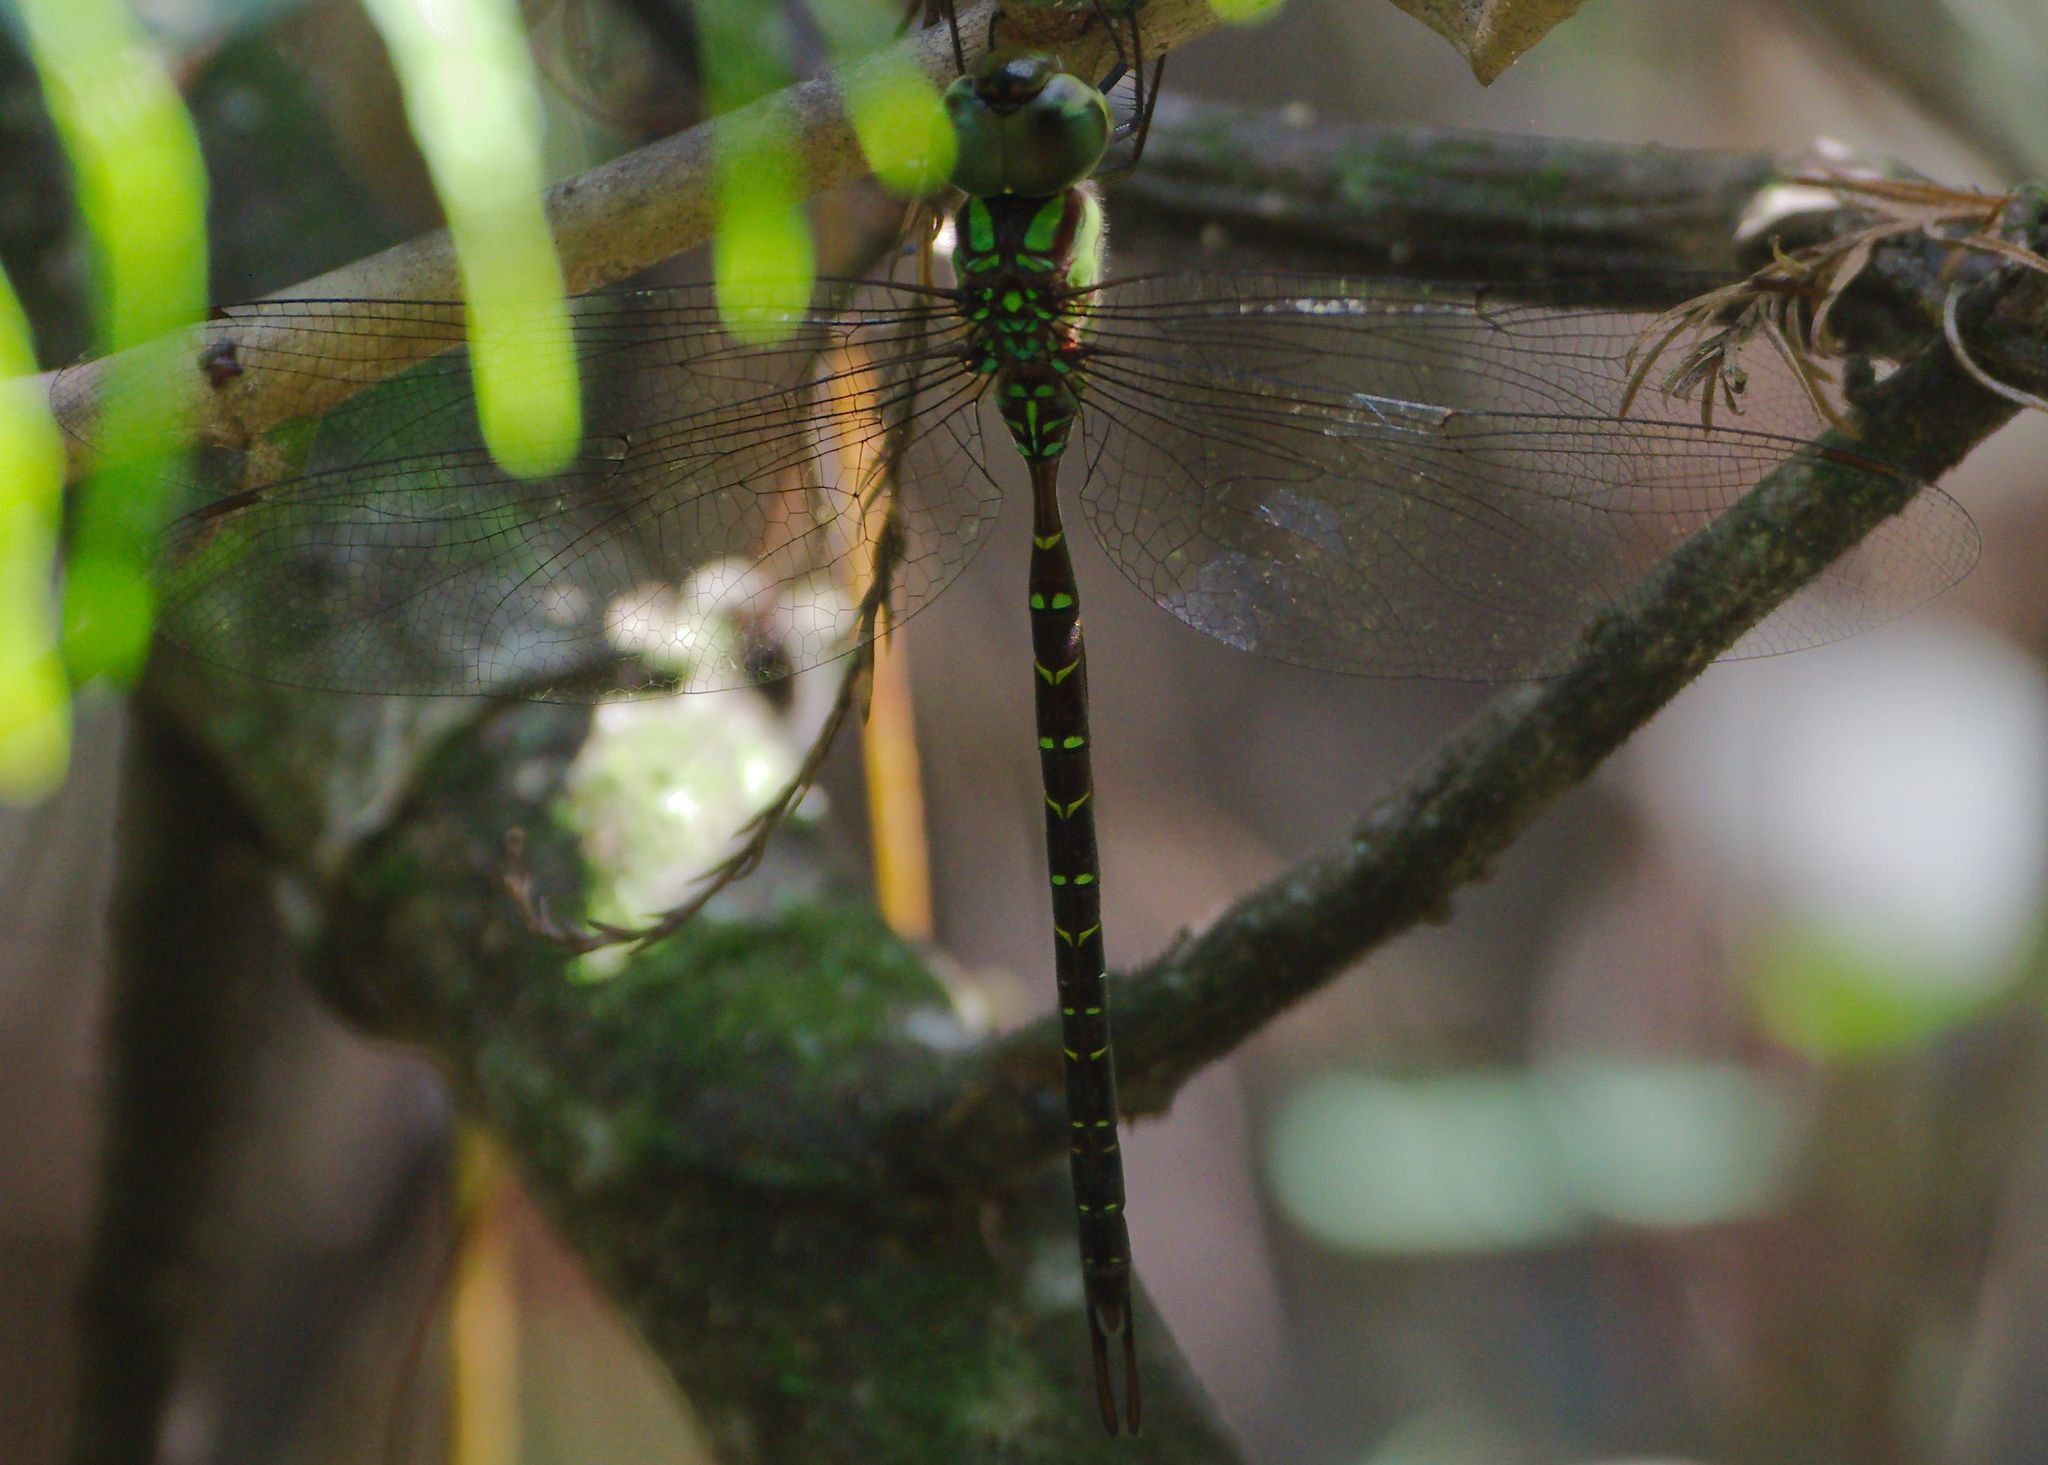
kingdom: Animalia
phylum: Arthropoda
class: Insecta
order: Odonata
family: Aeshnidae
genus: Triacanthagyna
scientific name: Triacanthagyna trifida
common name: Phantom darner
